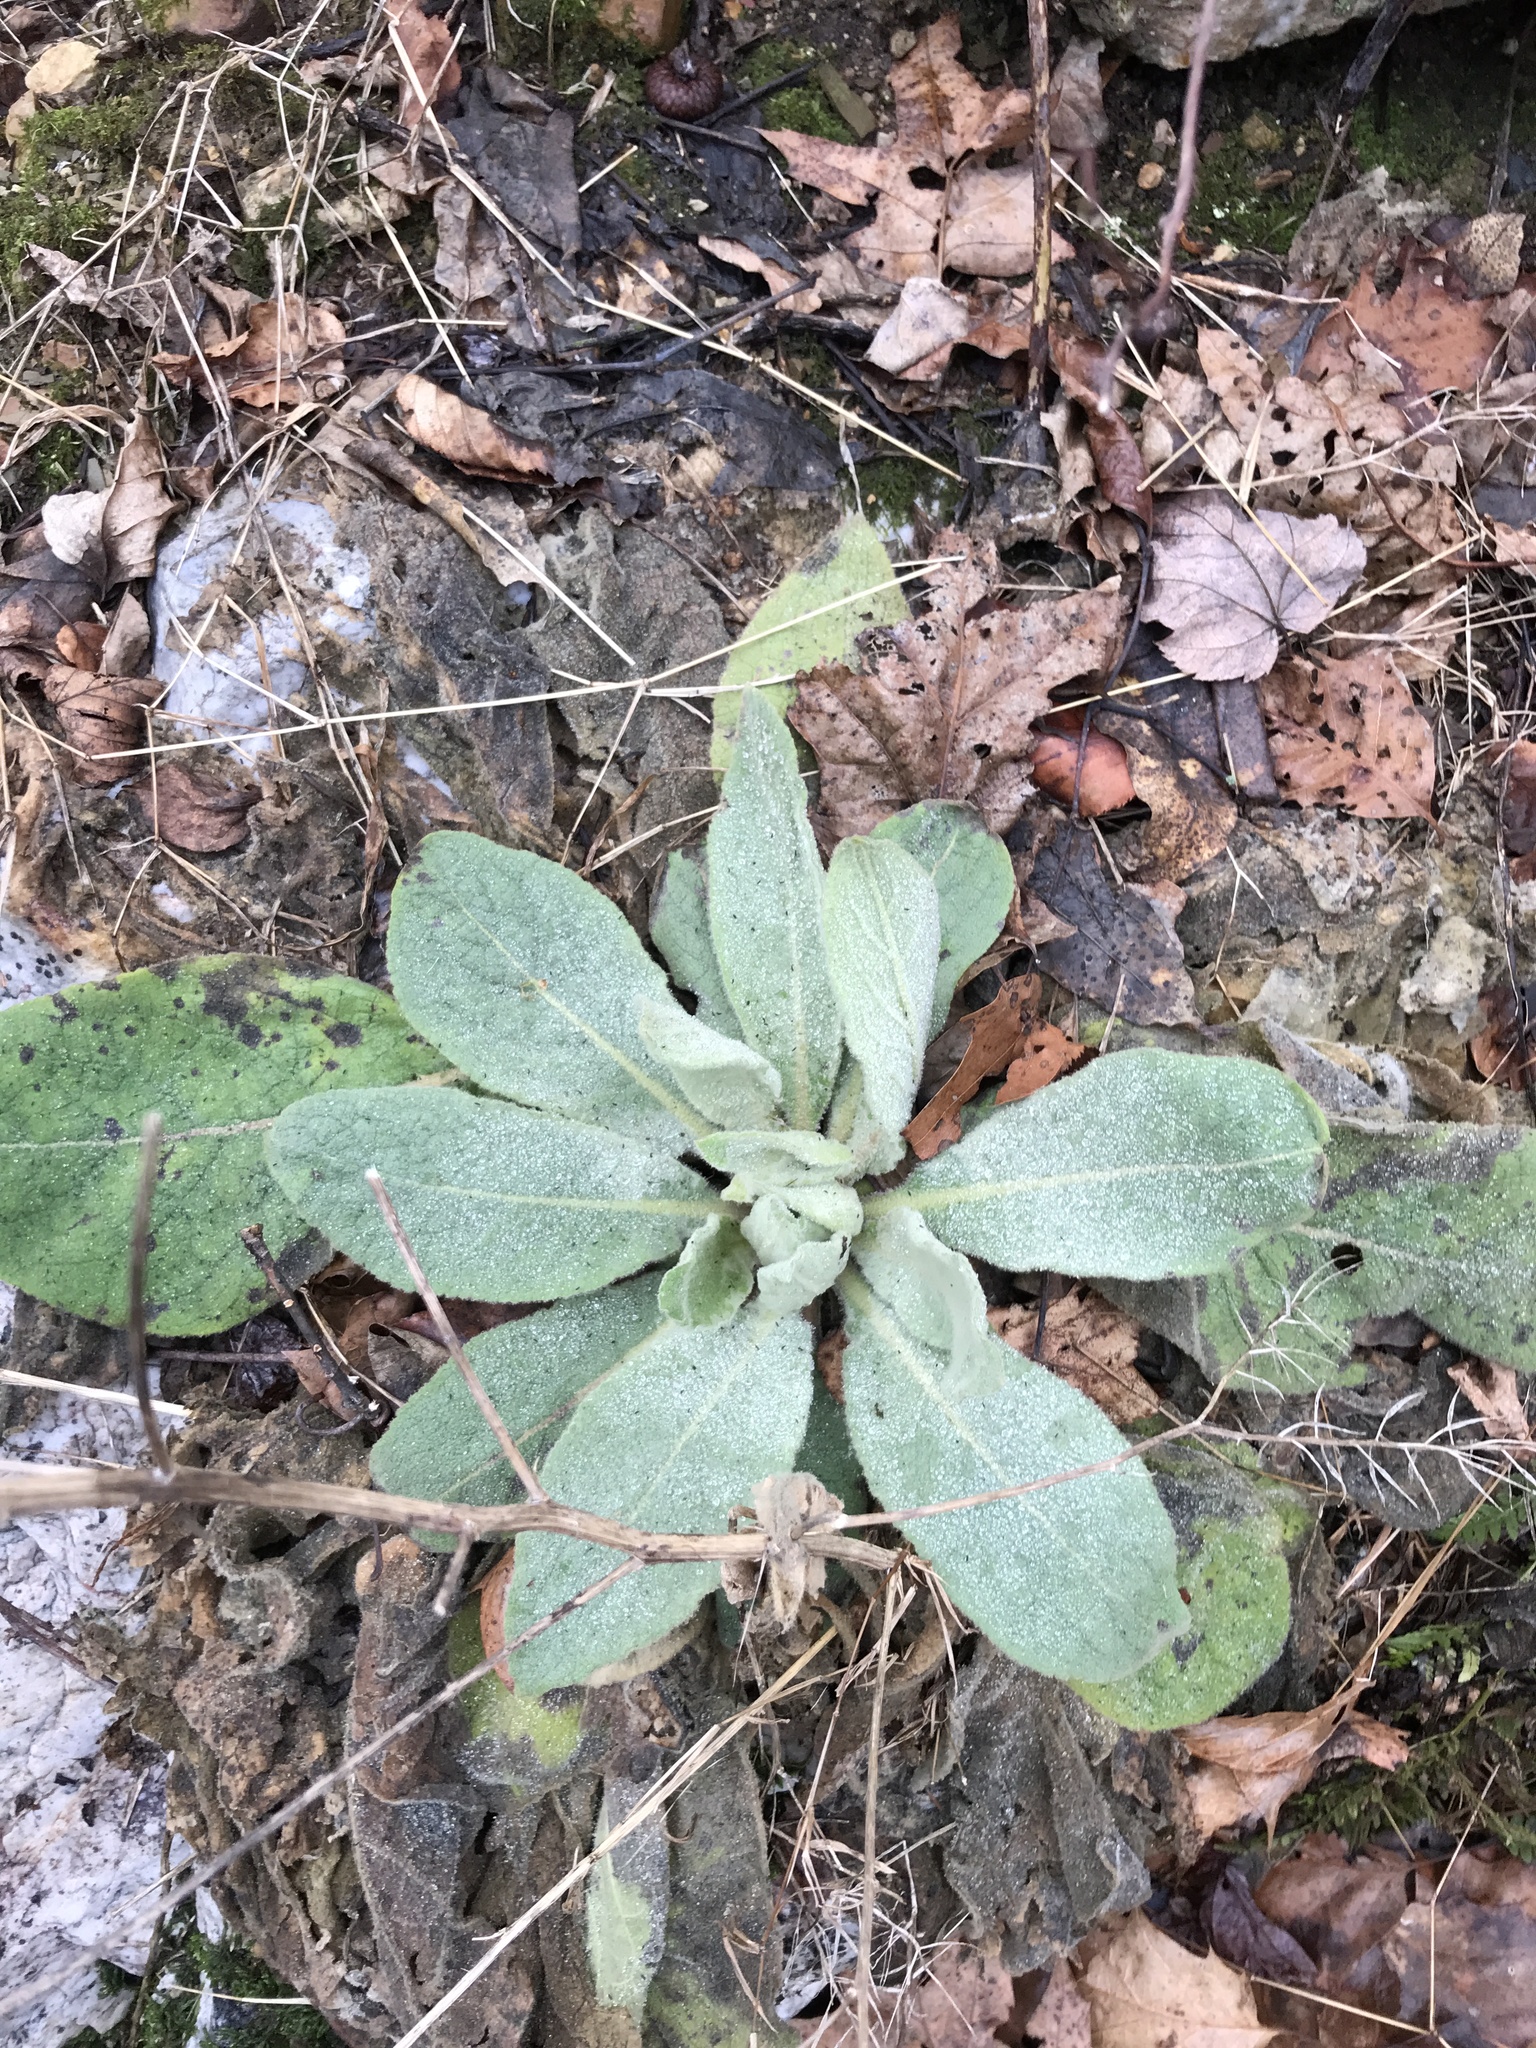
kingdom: Plantae
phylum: Tracheophyta
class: Magnoliopsida
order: Lamiales
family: Scrophulariaceae
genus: Verbascum
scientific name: Verbascum thapsus
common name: Common mullein
